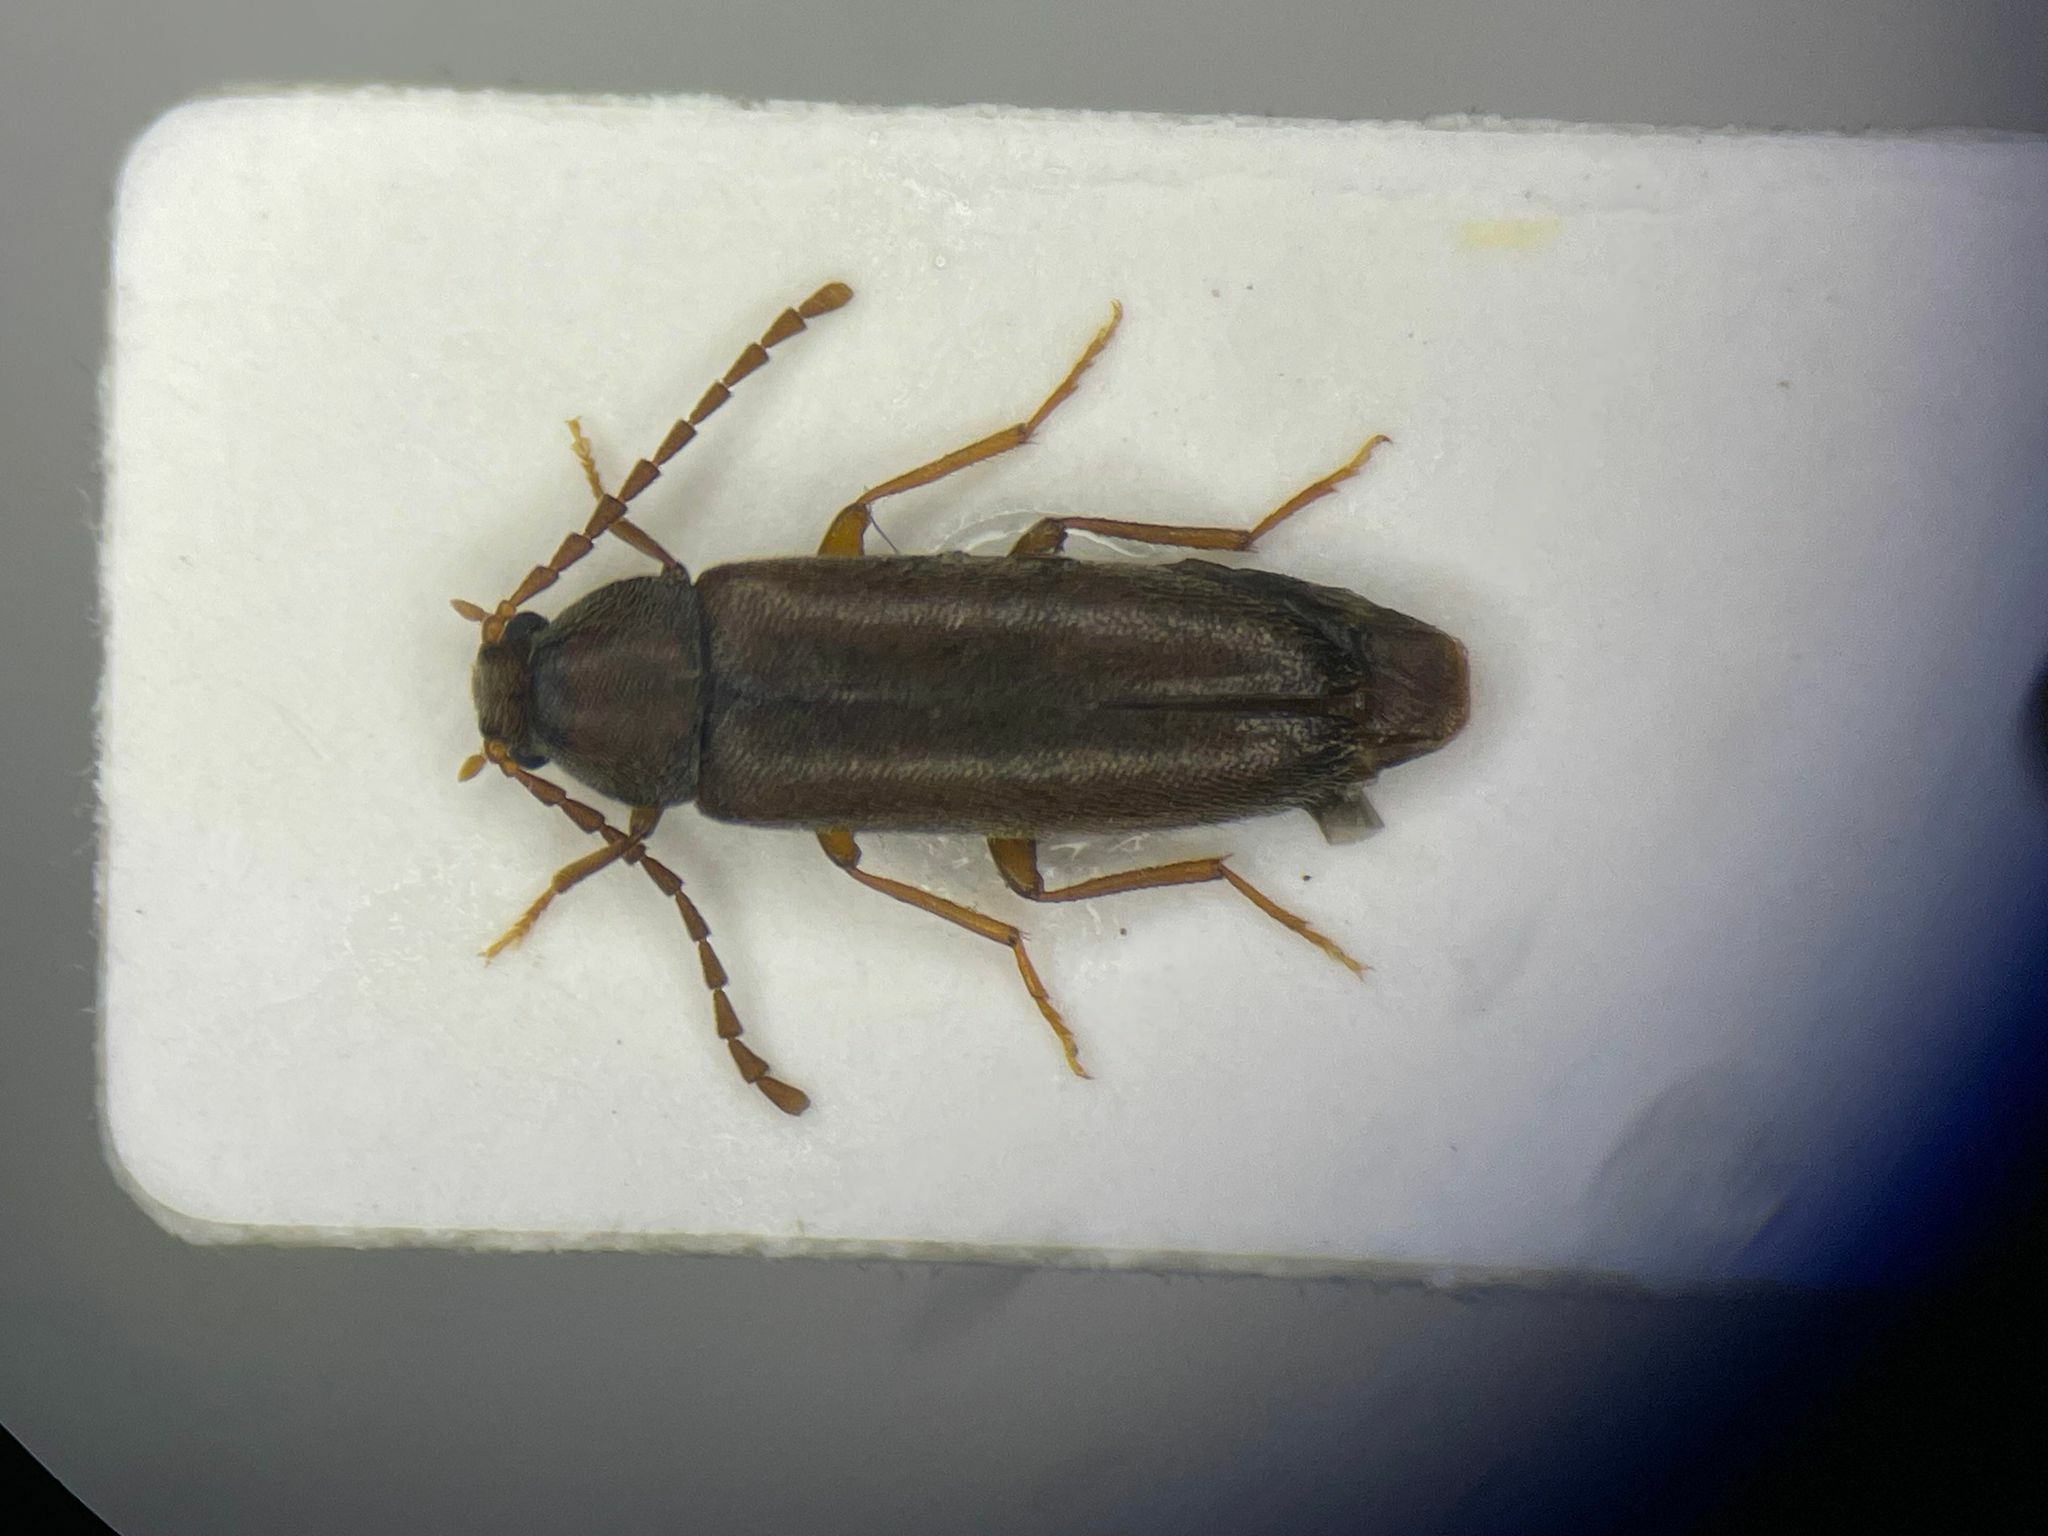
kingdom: Animalia
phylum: Arthropoda
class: Insecta
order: Coleoptera
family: Melandryidae
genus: Scotochroides
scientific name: Scotochroides antennatus
